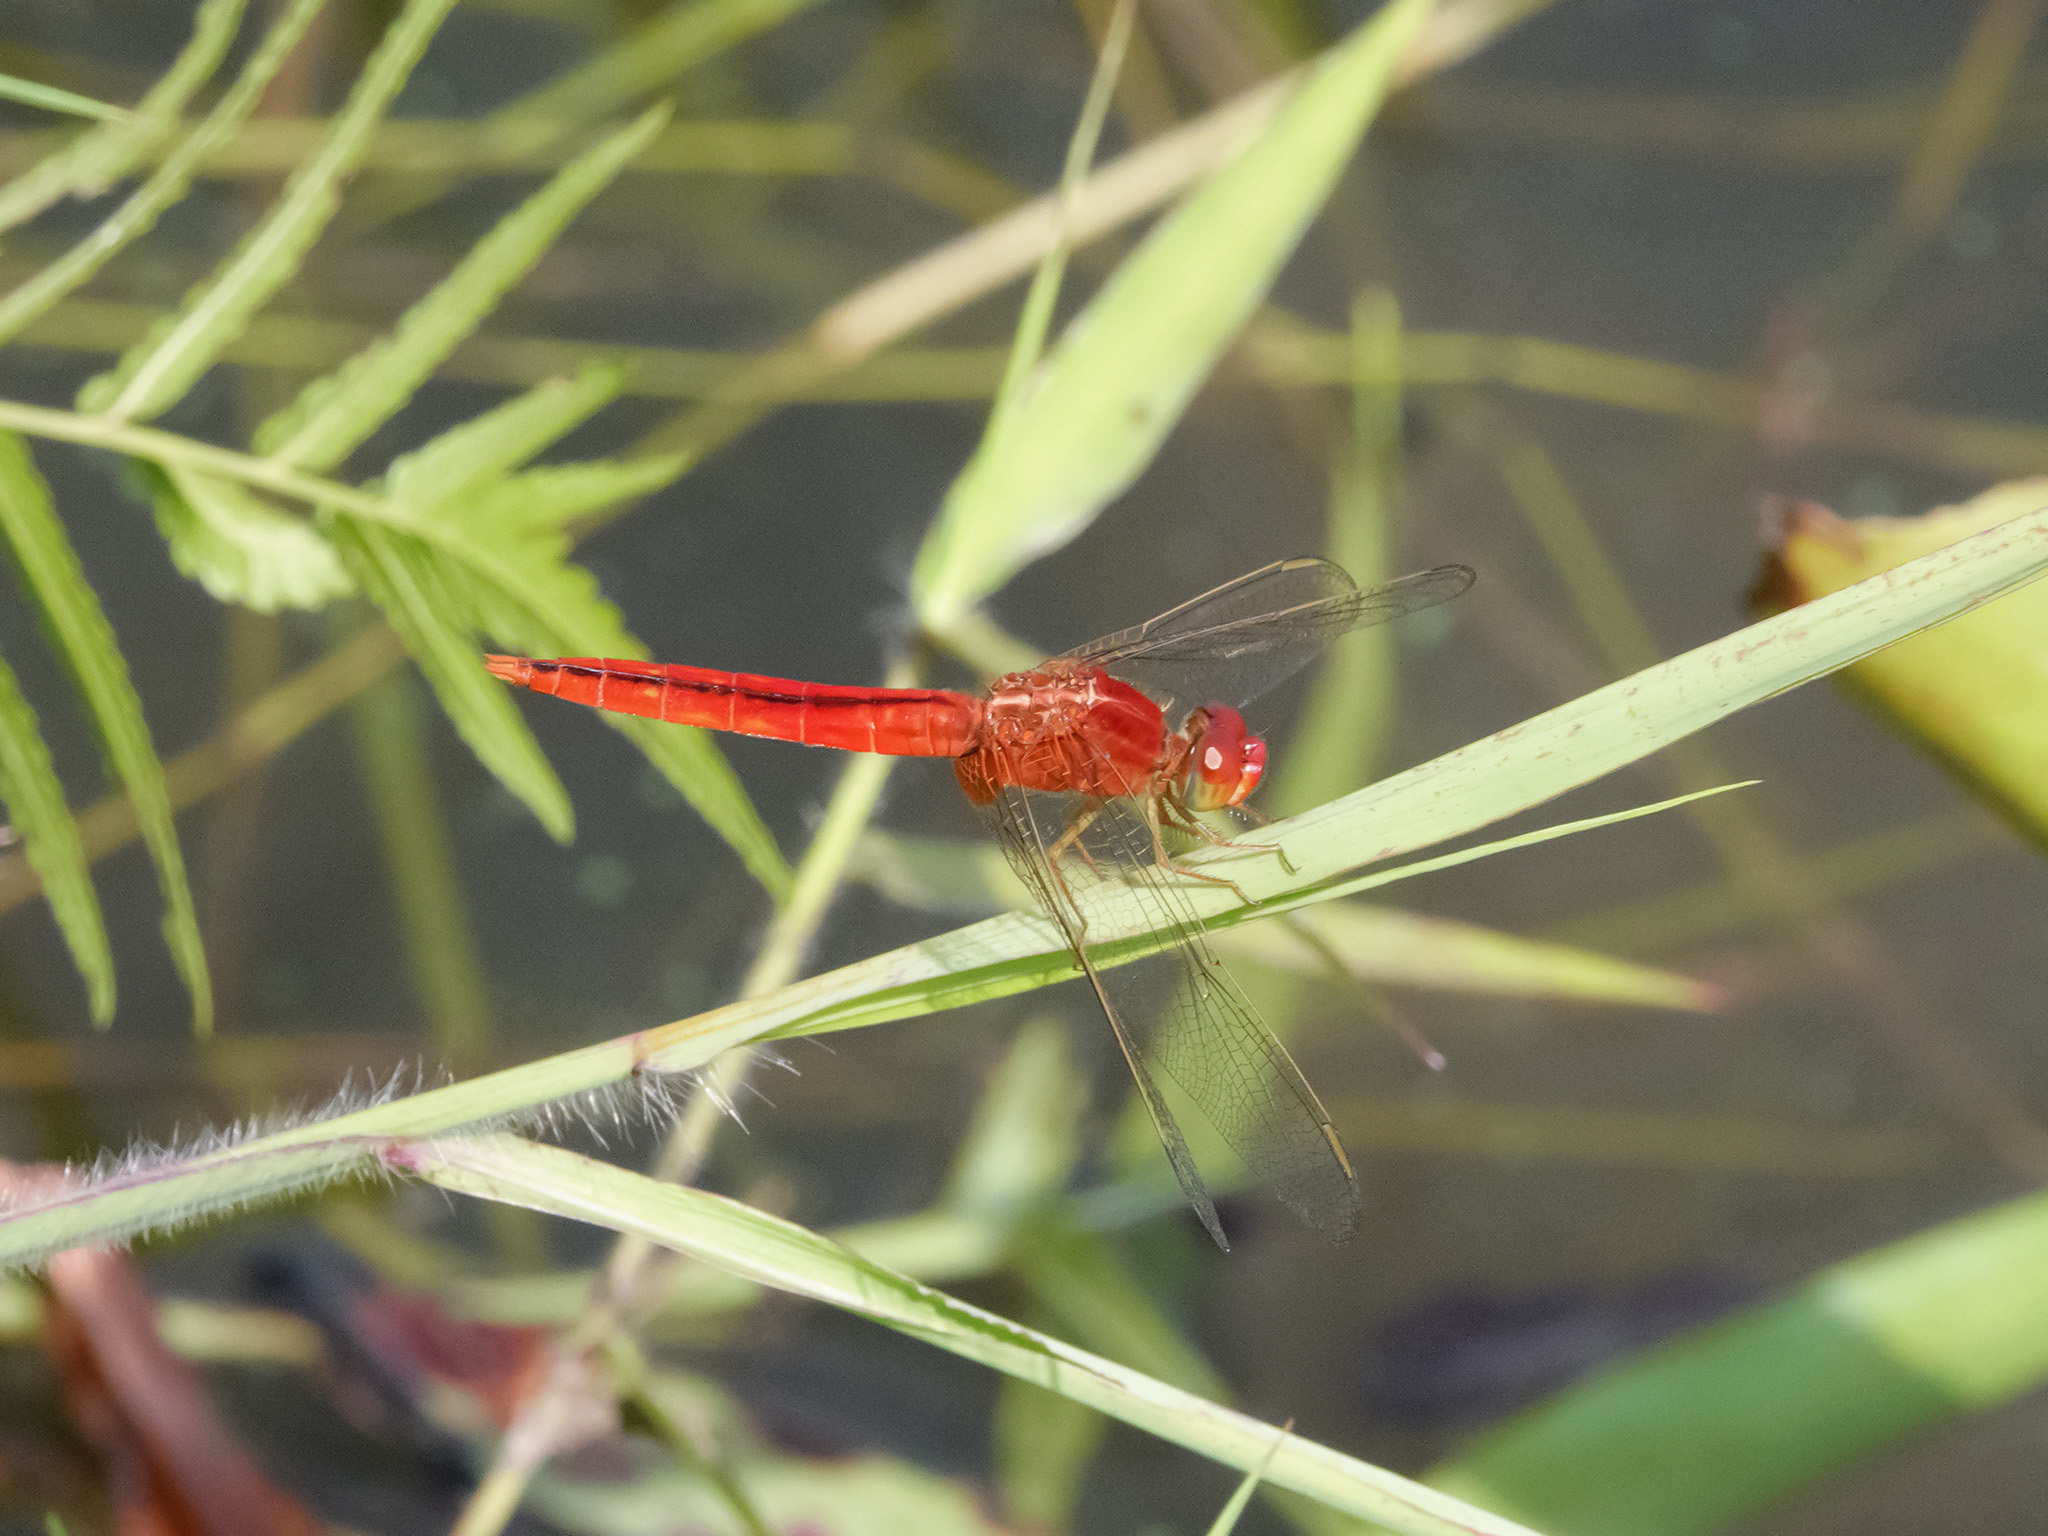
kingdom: Animalia
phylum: Arthropoda
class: Insecta
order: Odonata
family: Libellulidae
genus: Crocothemis
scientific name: Crocothemis servilia
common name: Scarlet skimmer
